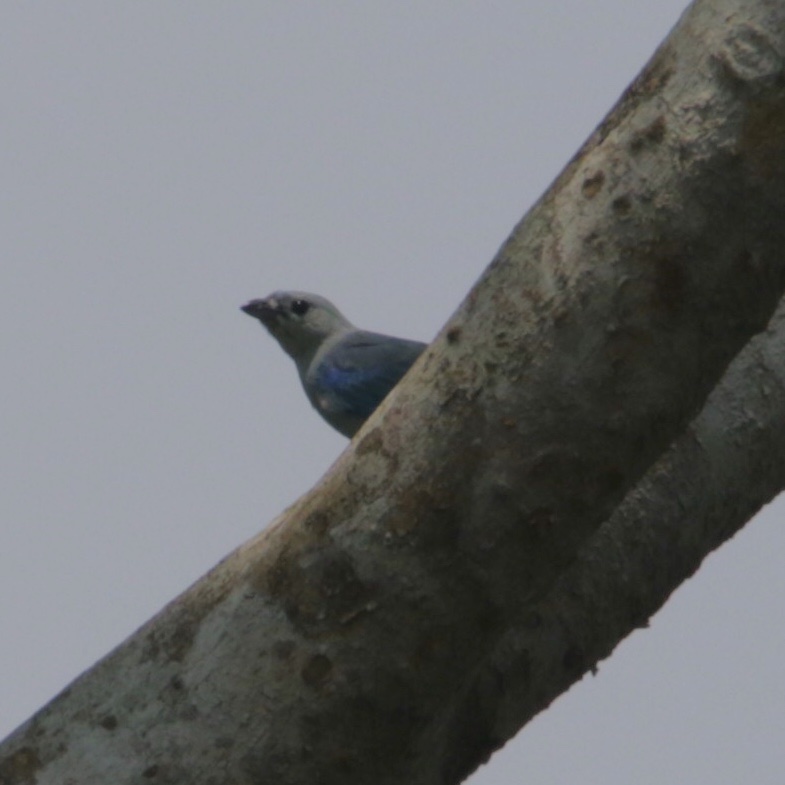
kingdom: Animalia
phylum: Chordata
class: Aves
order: Passeriformes
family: Thraupidae
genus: Thraupis
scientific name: Thraupis episcopus
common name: Blue-grey tanager
